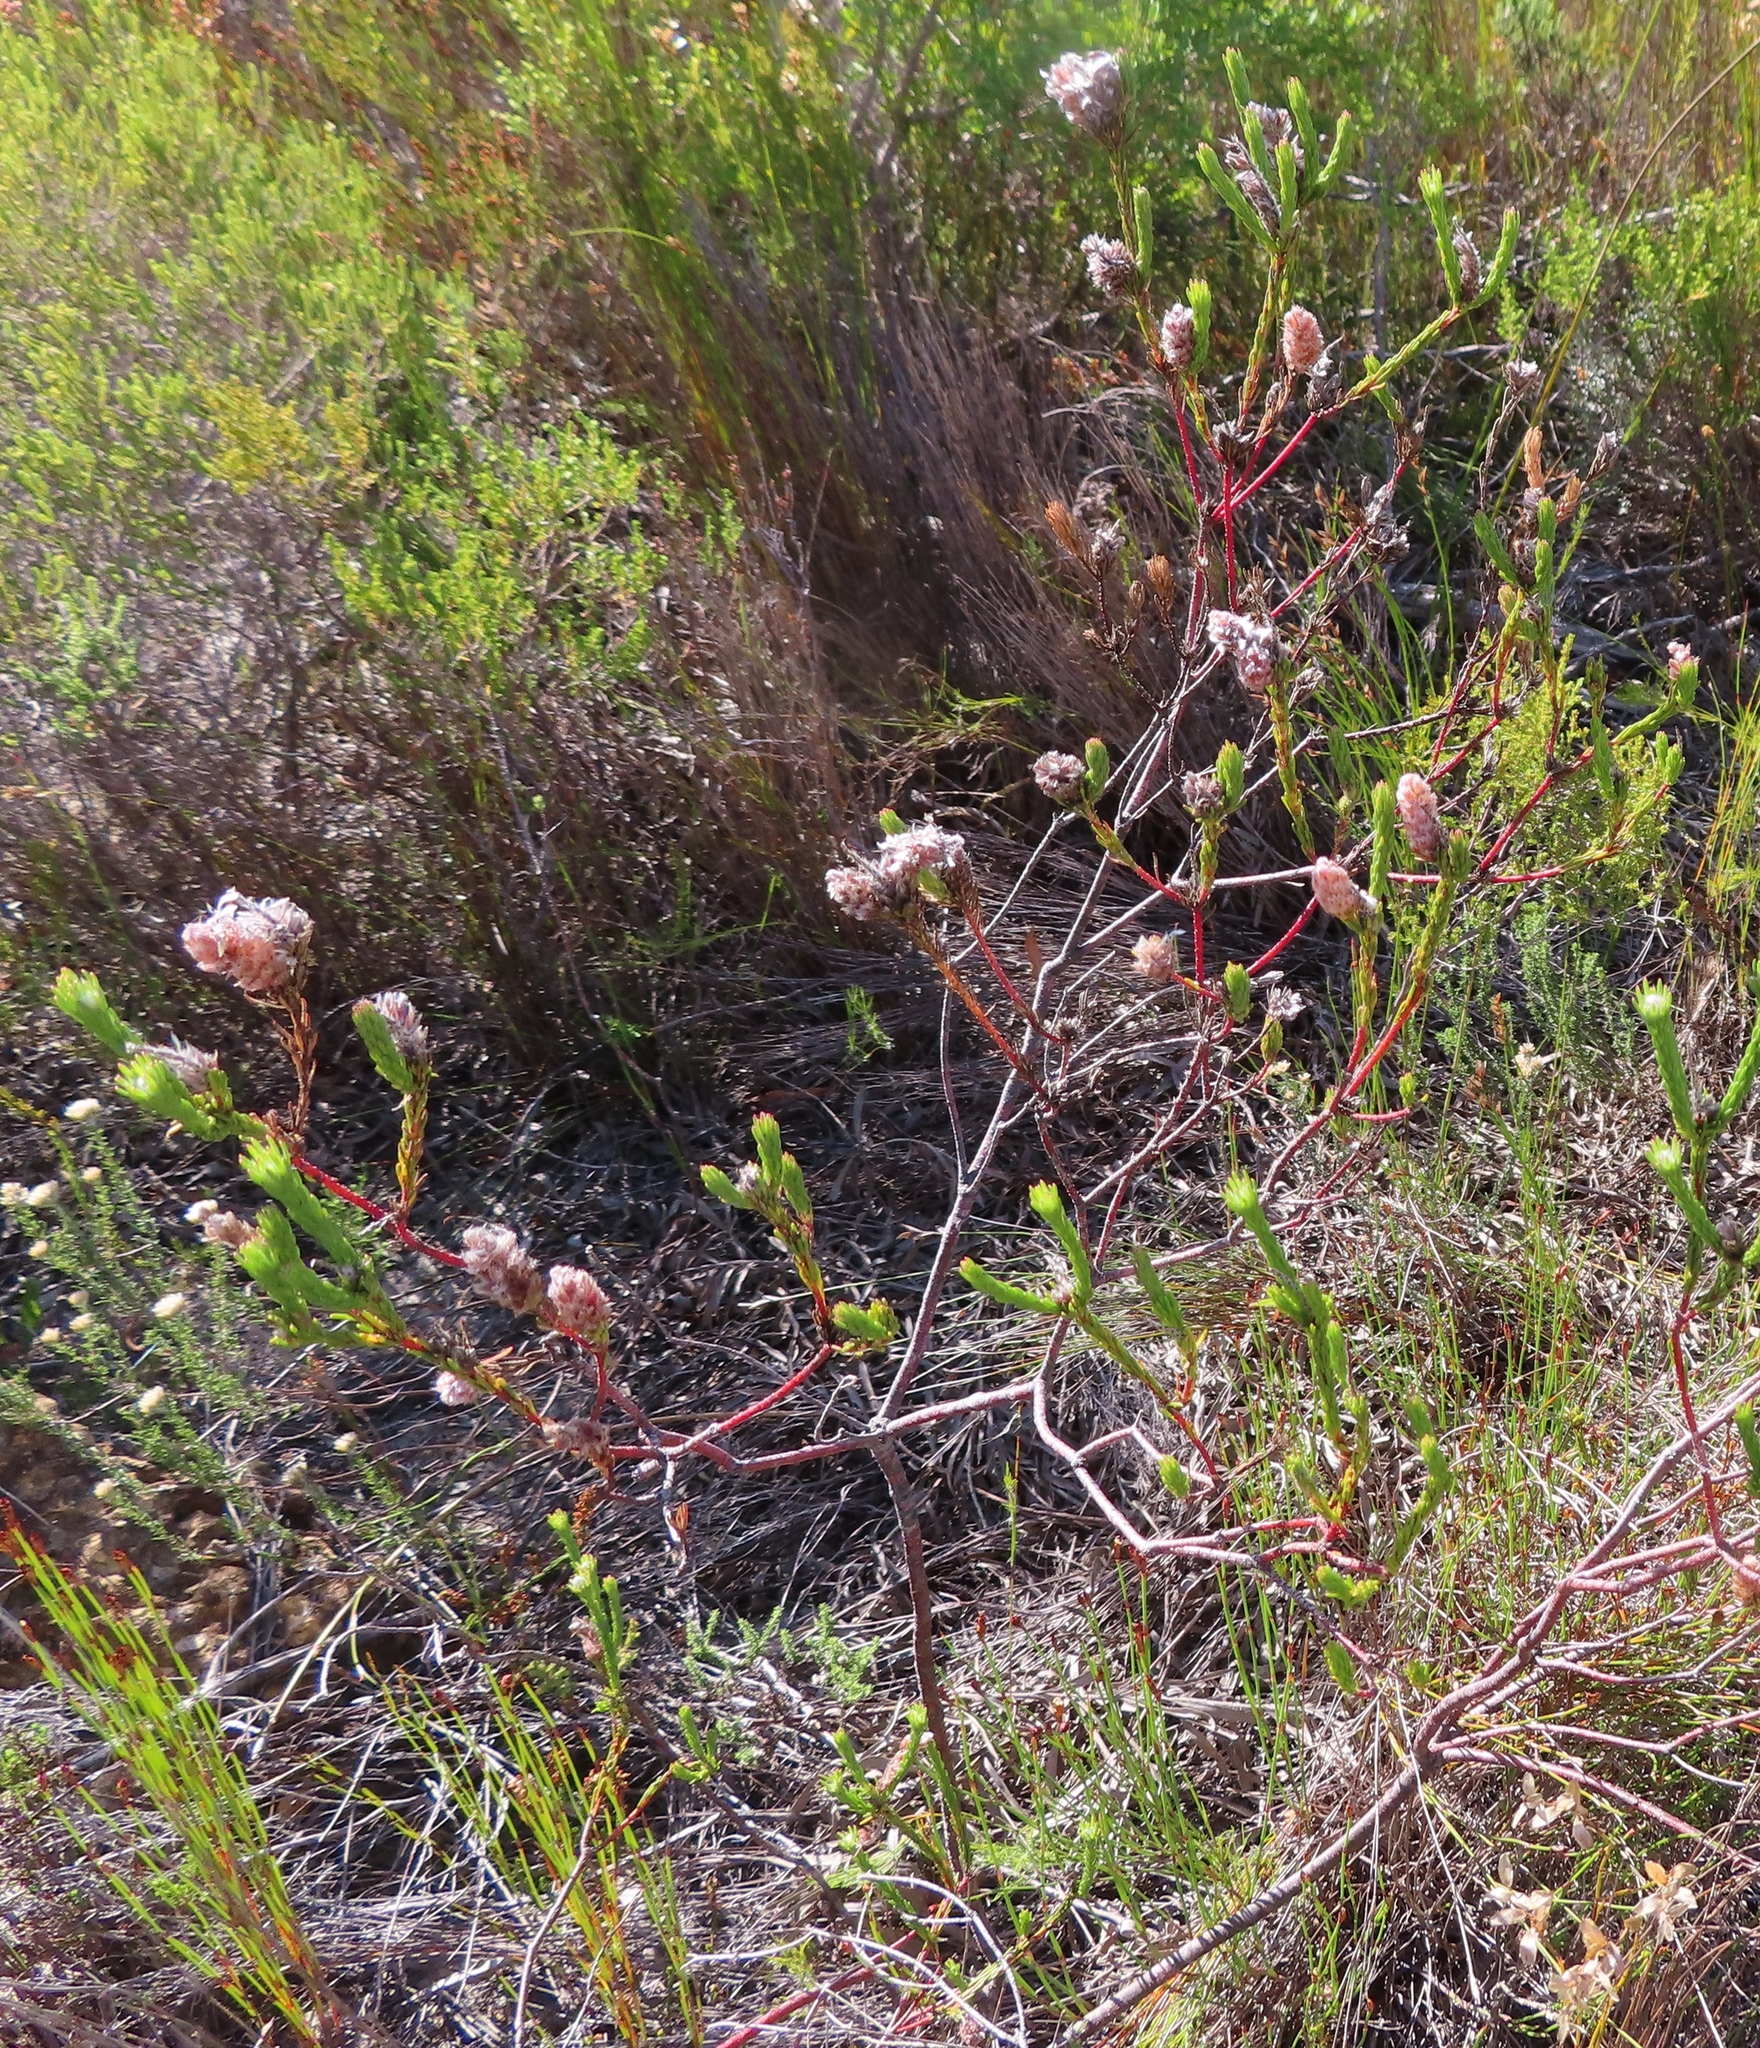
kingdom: Plantae
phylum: Tracheophyta
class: Magnoliopsida
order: Proteales
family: Proteaceae
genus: Spatalla
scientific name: Spatalla ericoides
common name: Erica-leaf spoon
